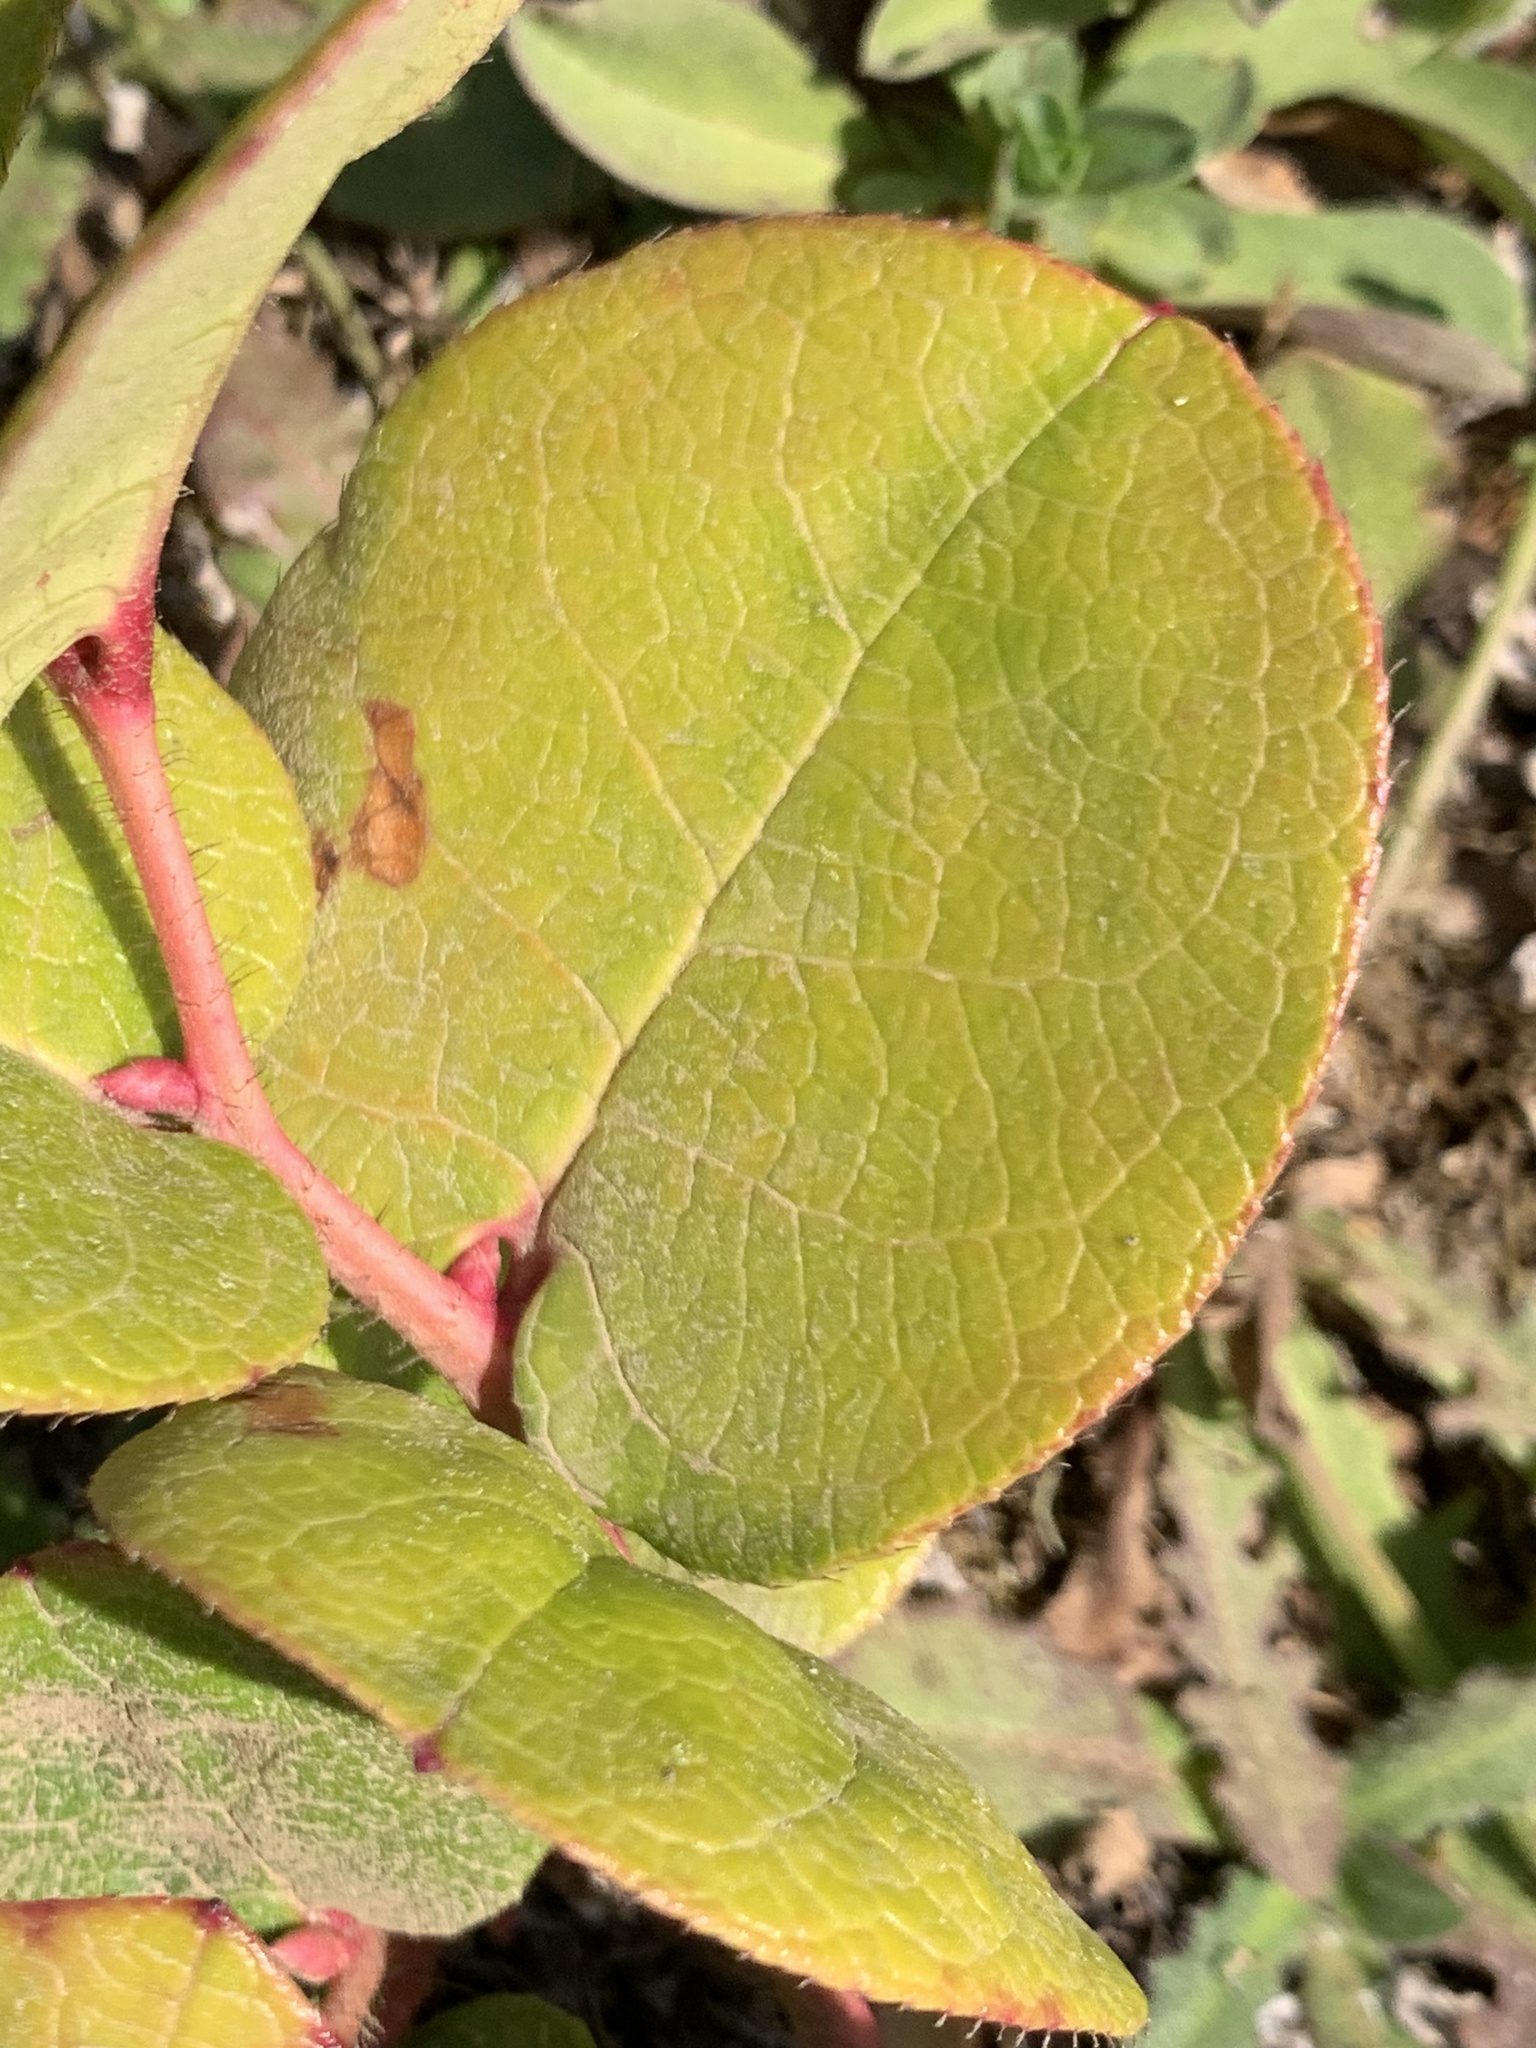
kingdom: Plantae
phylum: Tracheophyta
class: Magnoliopsida
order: Ericales
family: Ericaceae
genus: Gaultheria
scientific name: Gaultheria shallon
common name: Shallon
